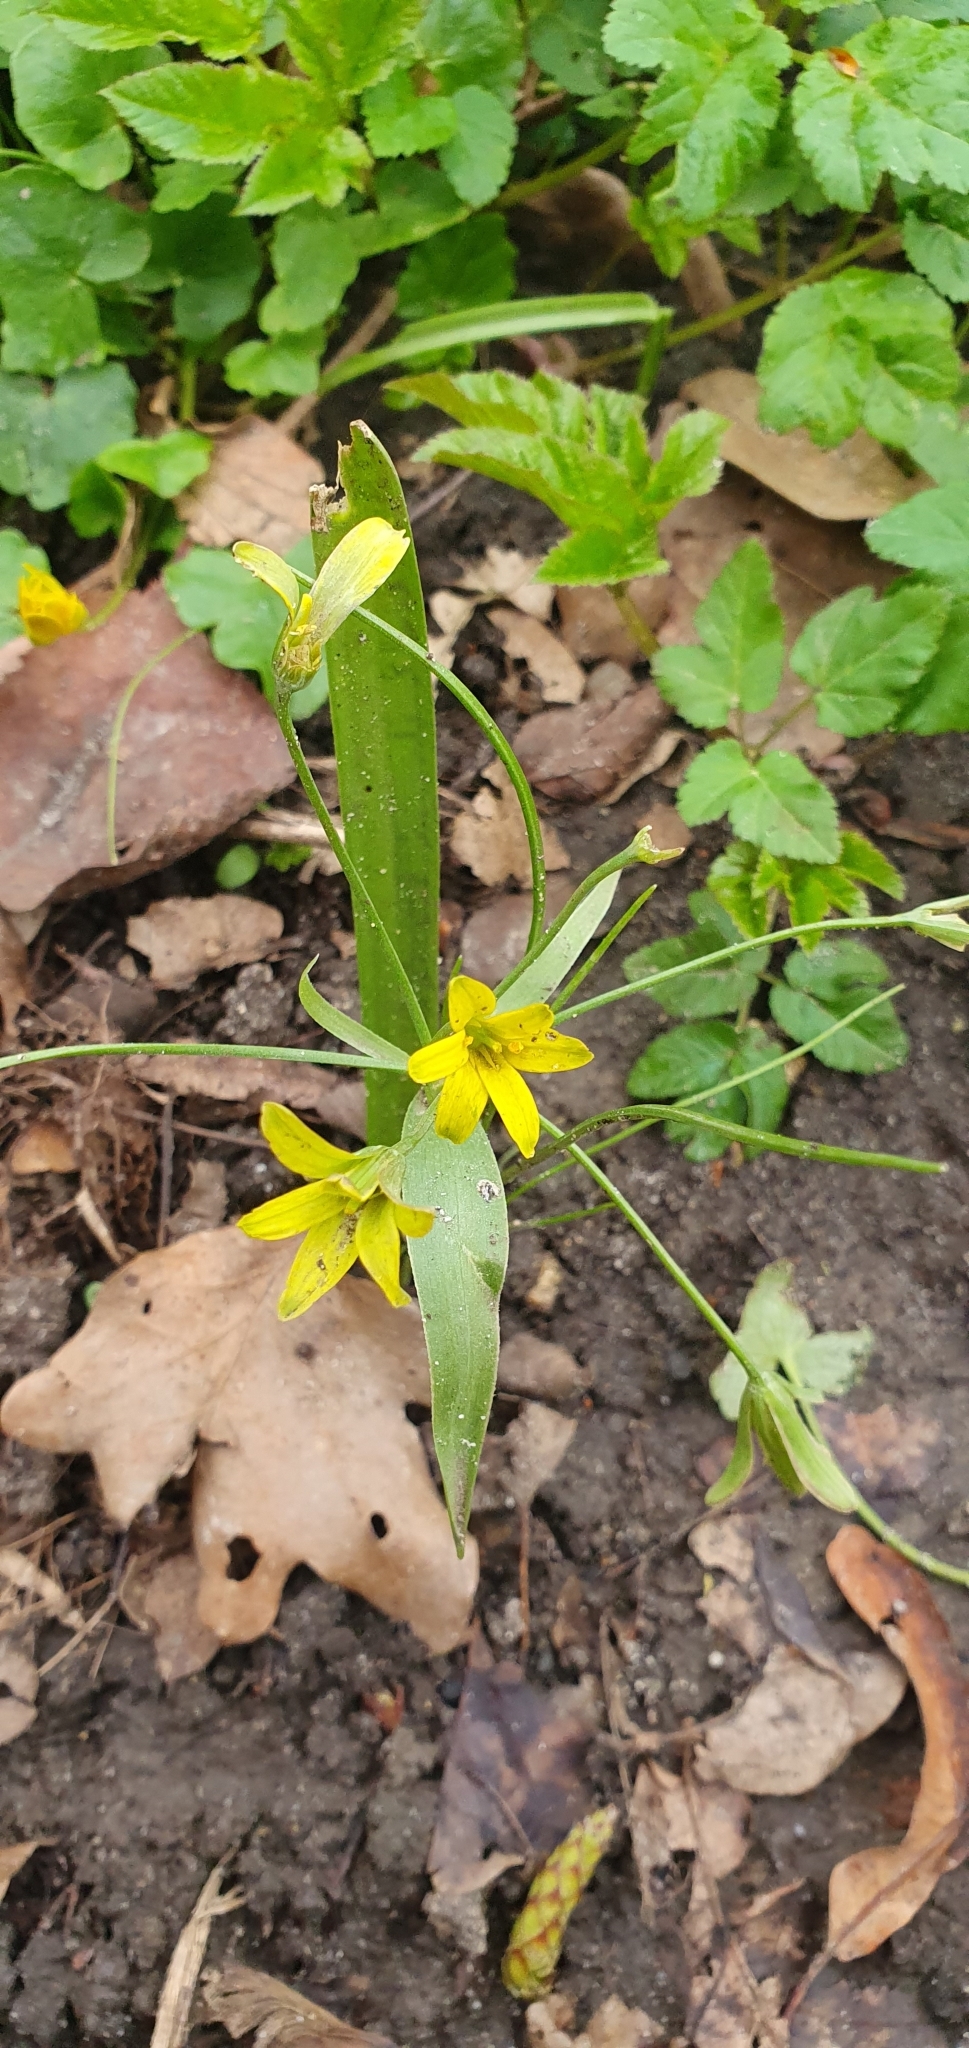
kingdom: Plantae
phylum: Tracheophyta
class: Liliopsida
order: Liliales
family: Liliaceae
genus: Gagea
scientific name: Gagea lutea
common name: Yellow star-of-bethlehem
